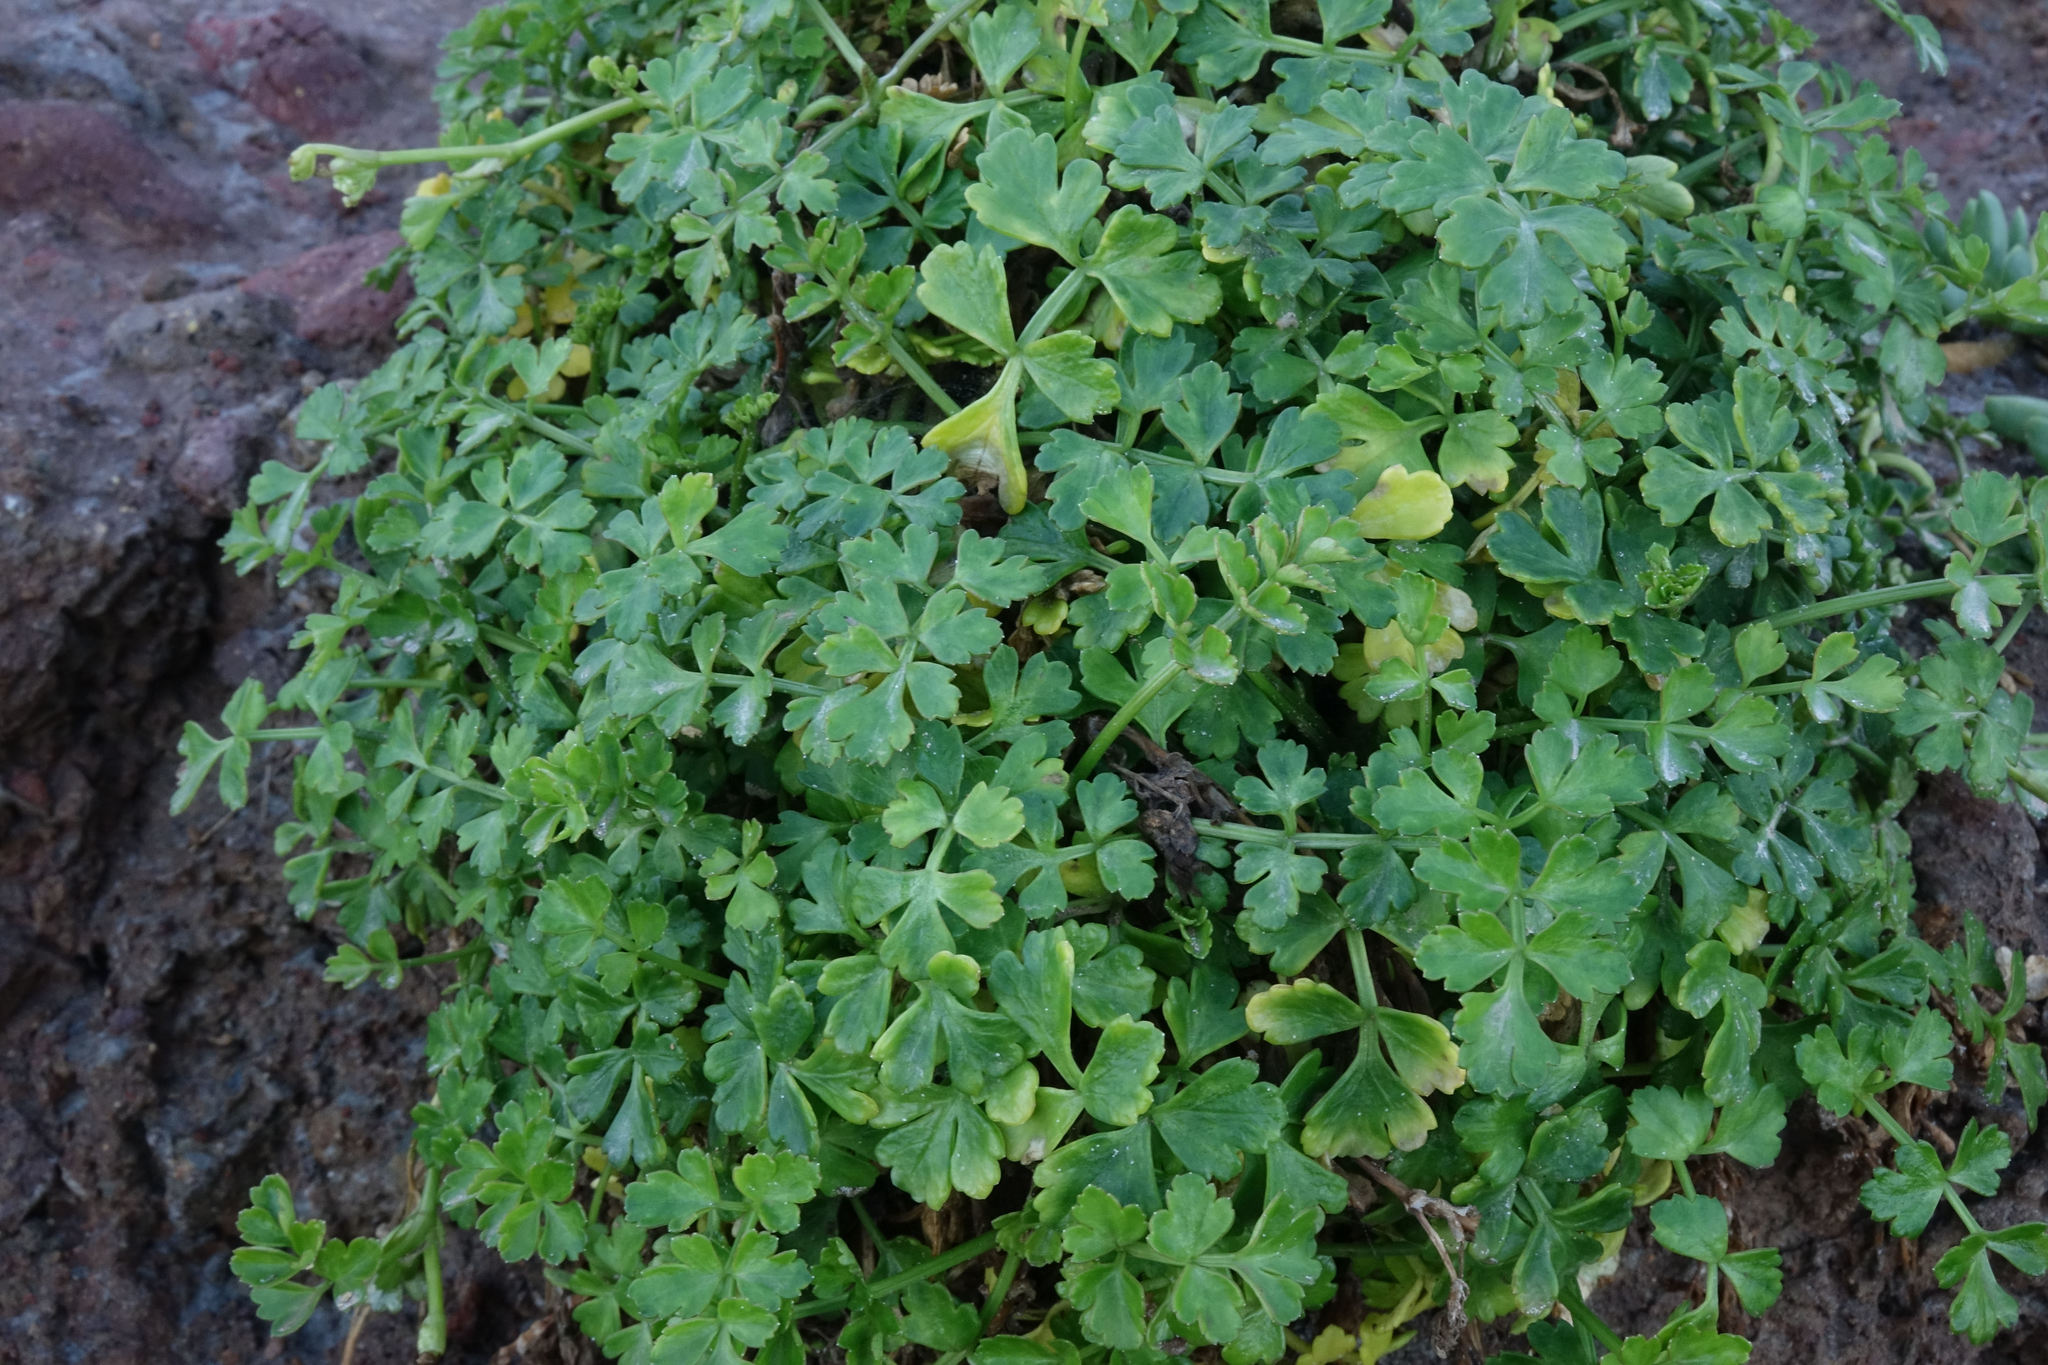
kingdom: Plantae
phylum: Tracheophyta
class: Magnoliopsida
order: Apiales
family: Apiaceae
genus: Apium
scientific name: Apium prostratum
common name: Prostrate marshwort
